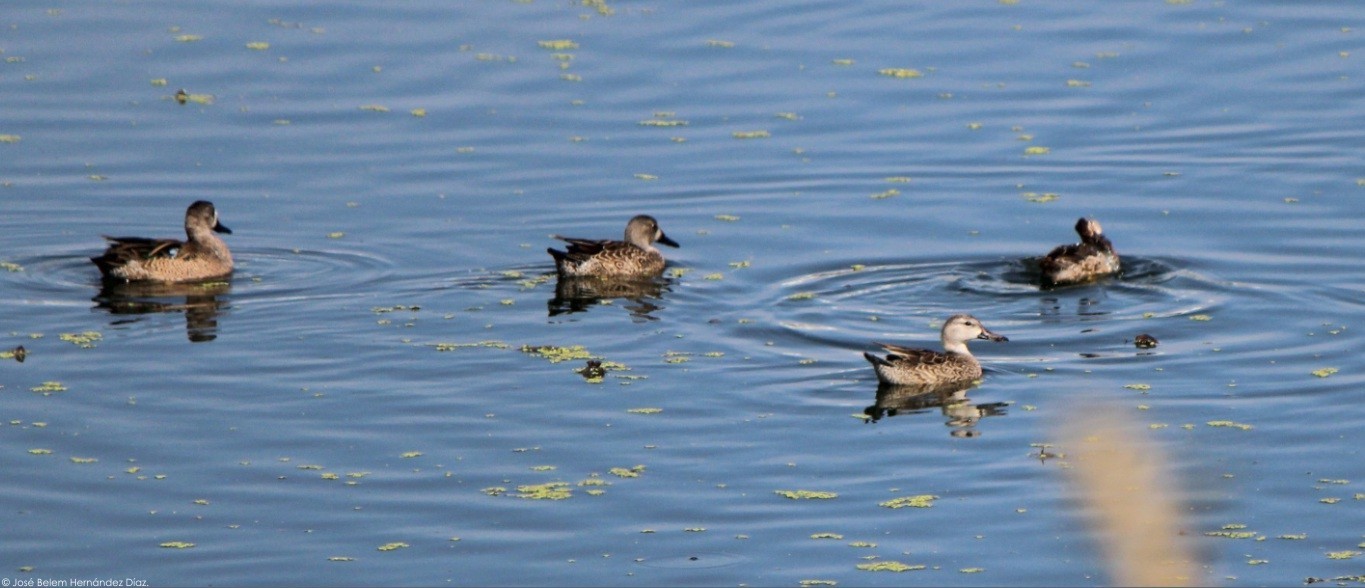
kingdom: Animalia
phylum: Chordata
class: Aves
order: Anseriformes
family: Anatidae
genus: Spatula
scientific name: Spatula discors
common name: Blue-winged teal
